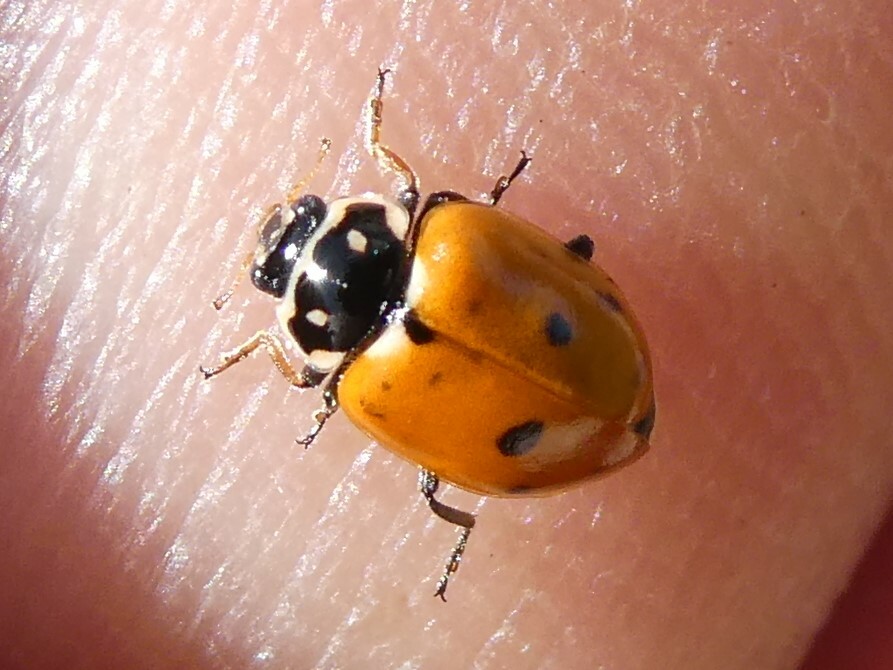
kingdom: Animalia
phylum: Arthropoda
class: Insecta
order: Coleoptera
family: Coccinellidae
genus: Hippodamia
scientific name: Hippodamia variegata
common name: Ladybird beetle
